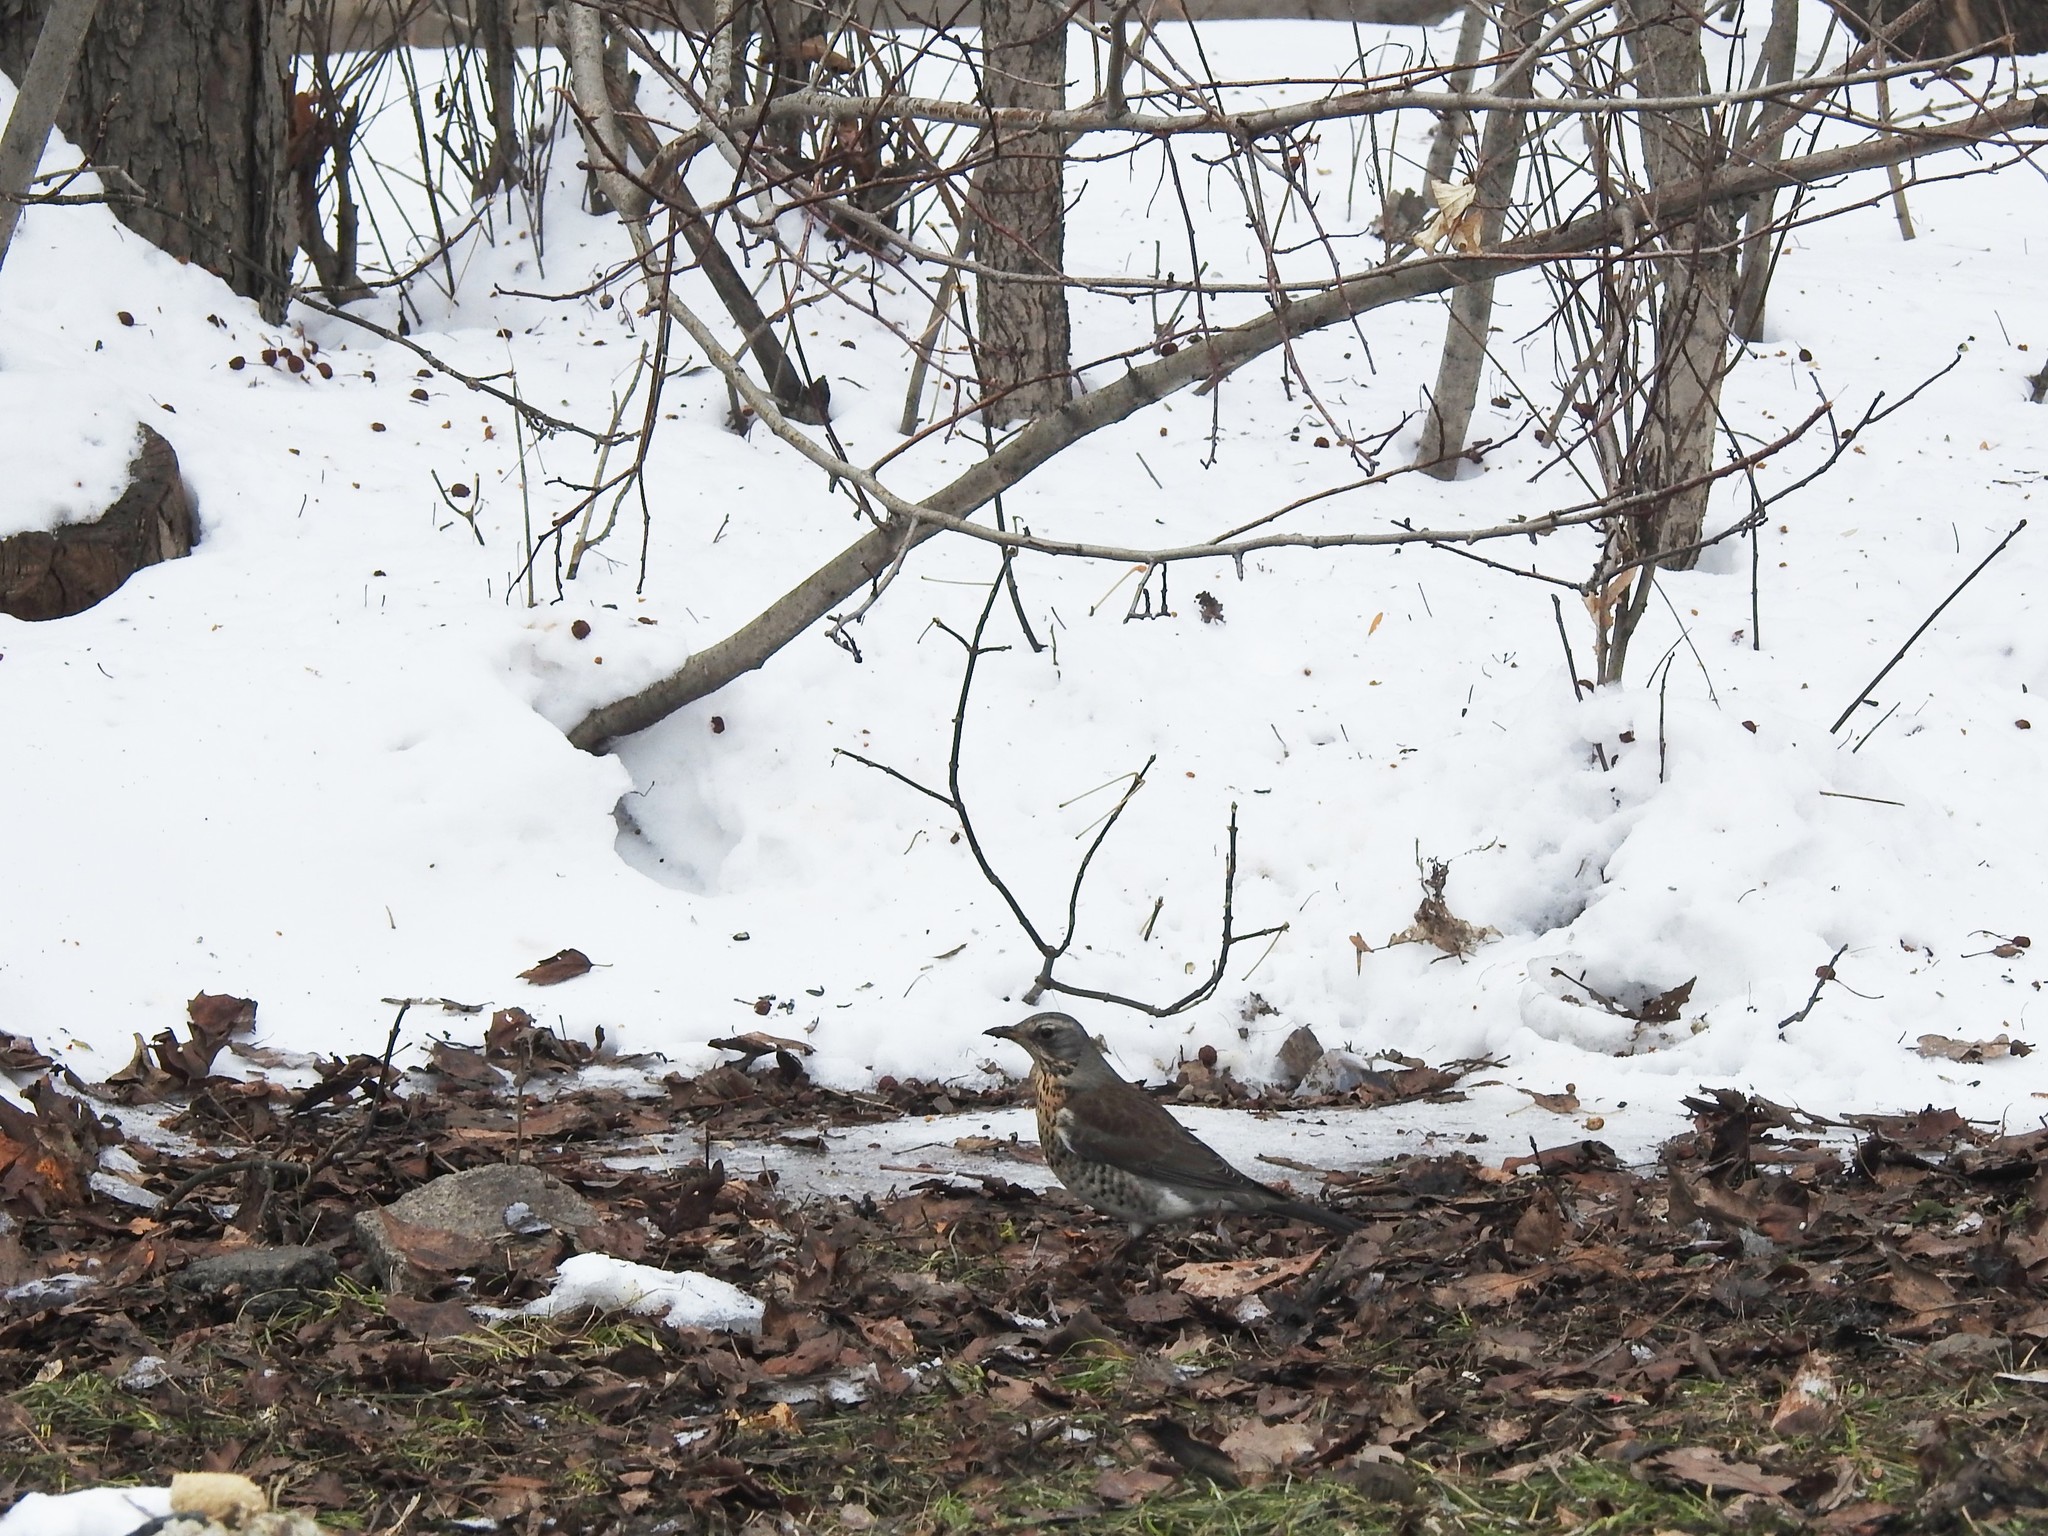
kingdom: Animalia
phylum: Chordata
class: Aves
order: Passeriformes
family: Turdidae
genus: Turdus
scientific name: Turdus pilaris
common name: Fieldfare
